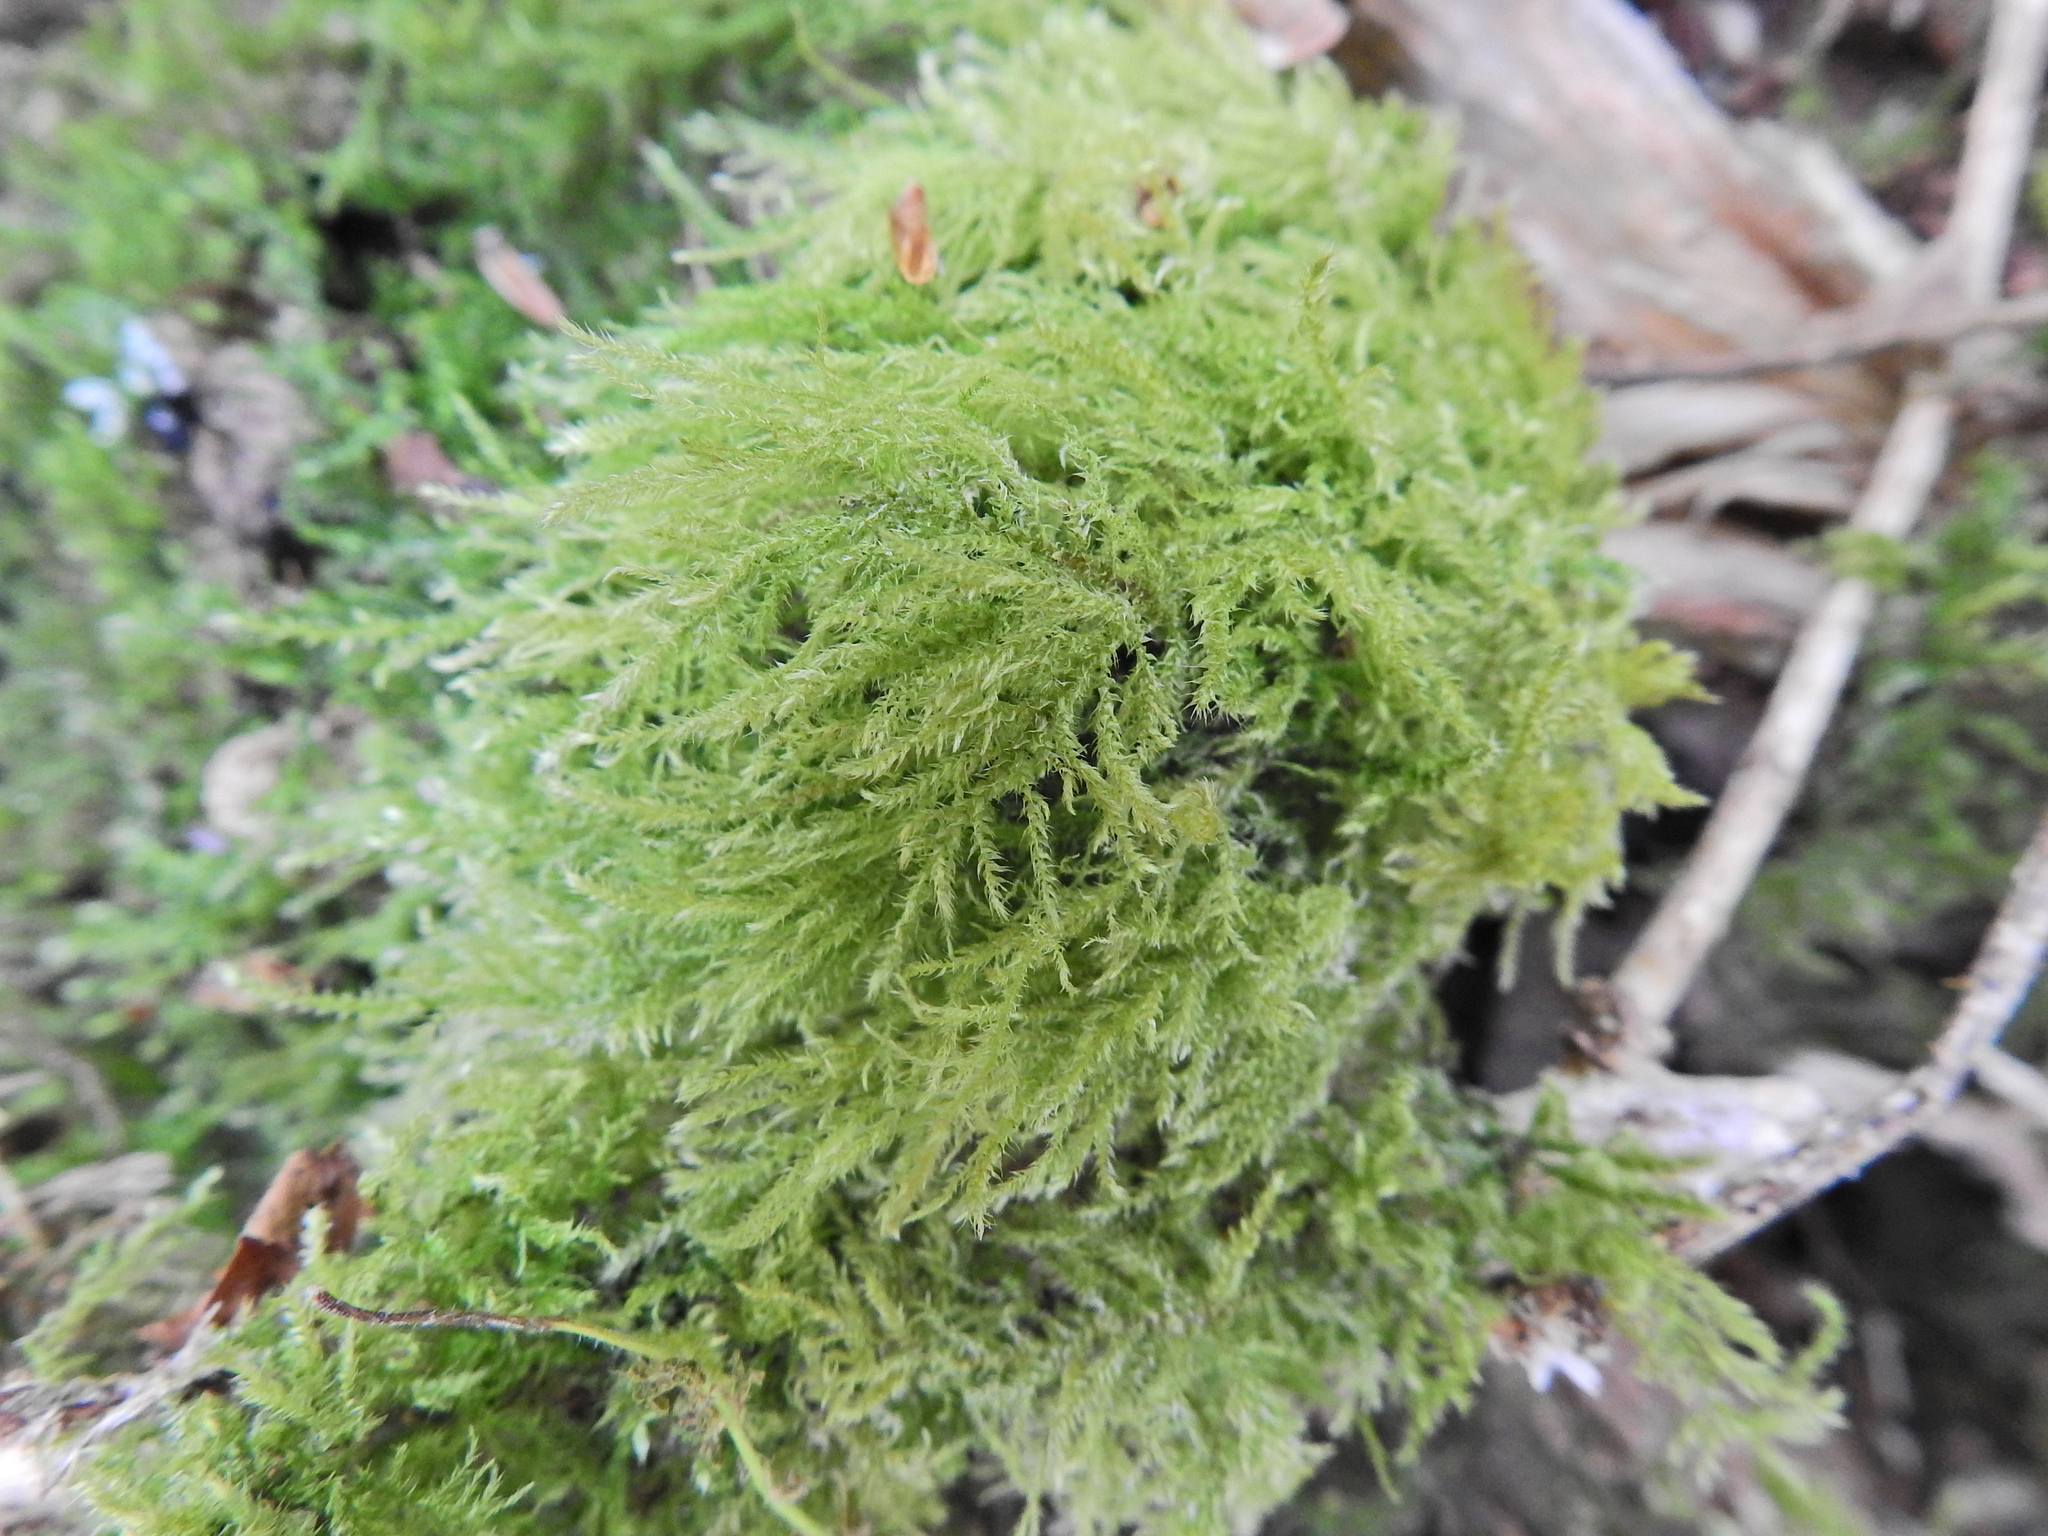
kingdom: Plantae
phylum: Bryophyta
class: Bryopsida
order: Hypnales
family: Brachytheciaceae
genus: Kindbergia
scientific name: Kindbergia praelonga
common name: Slender beaked moss
